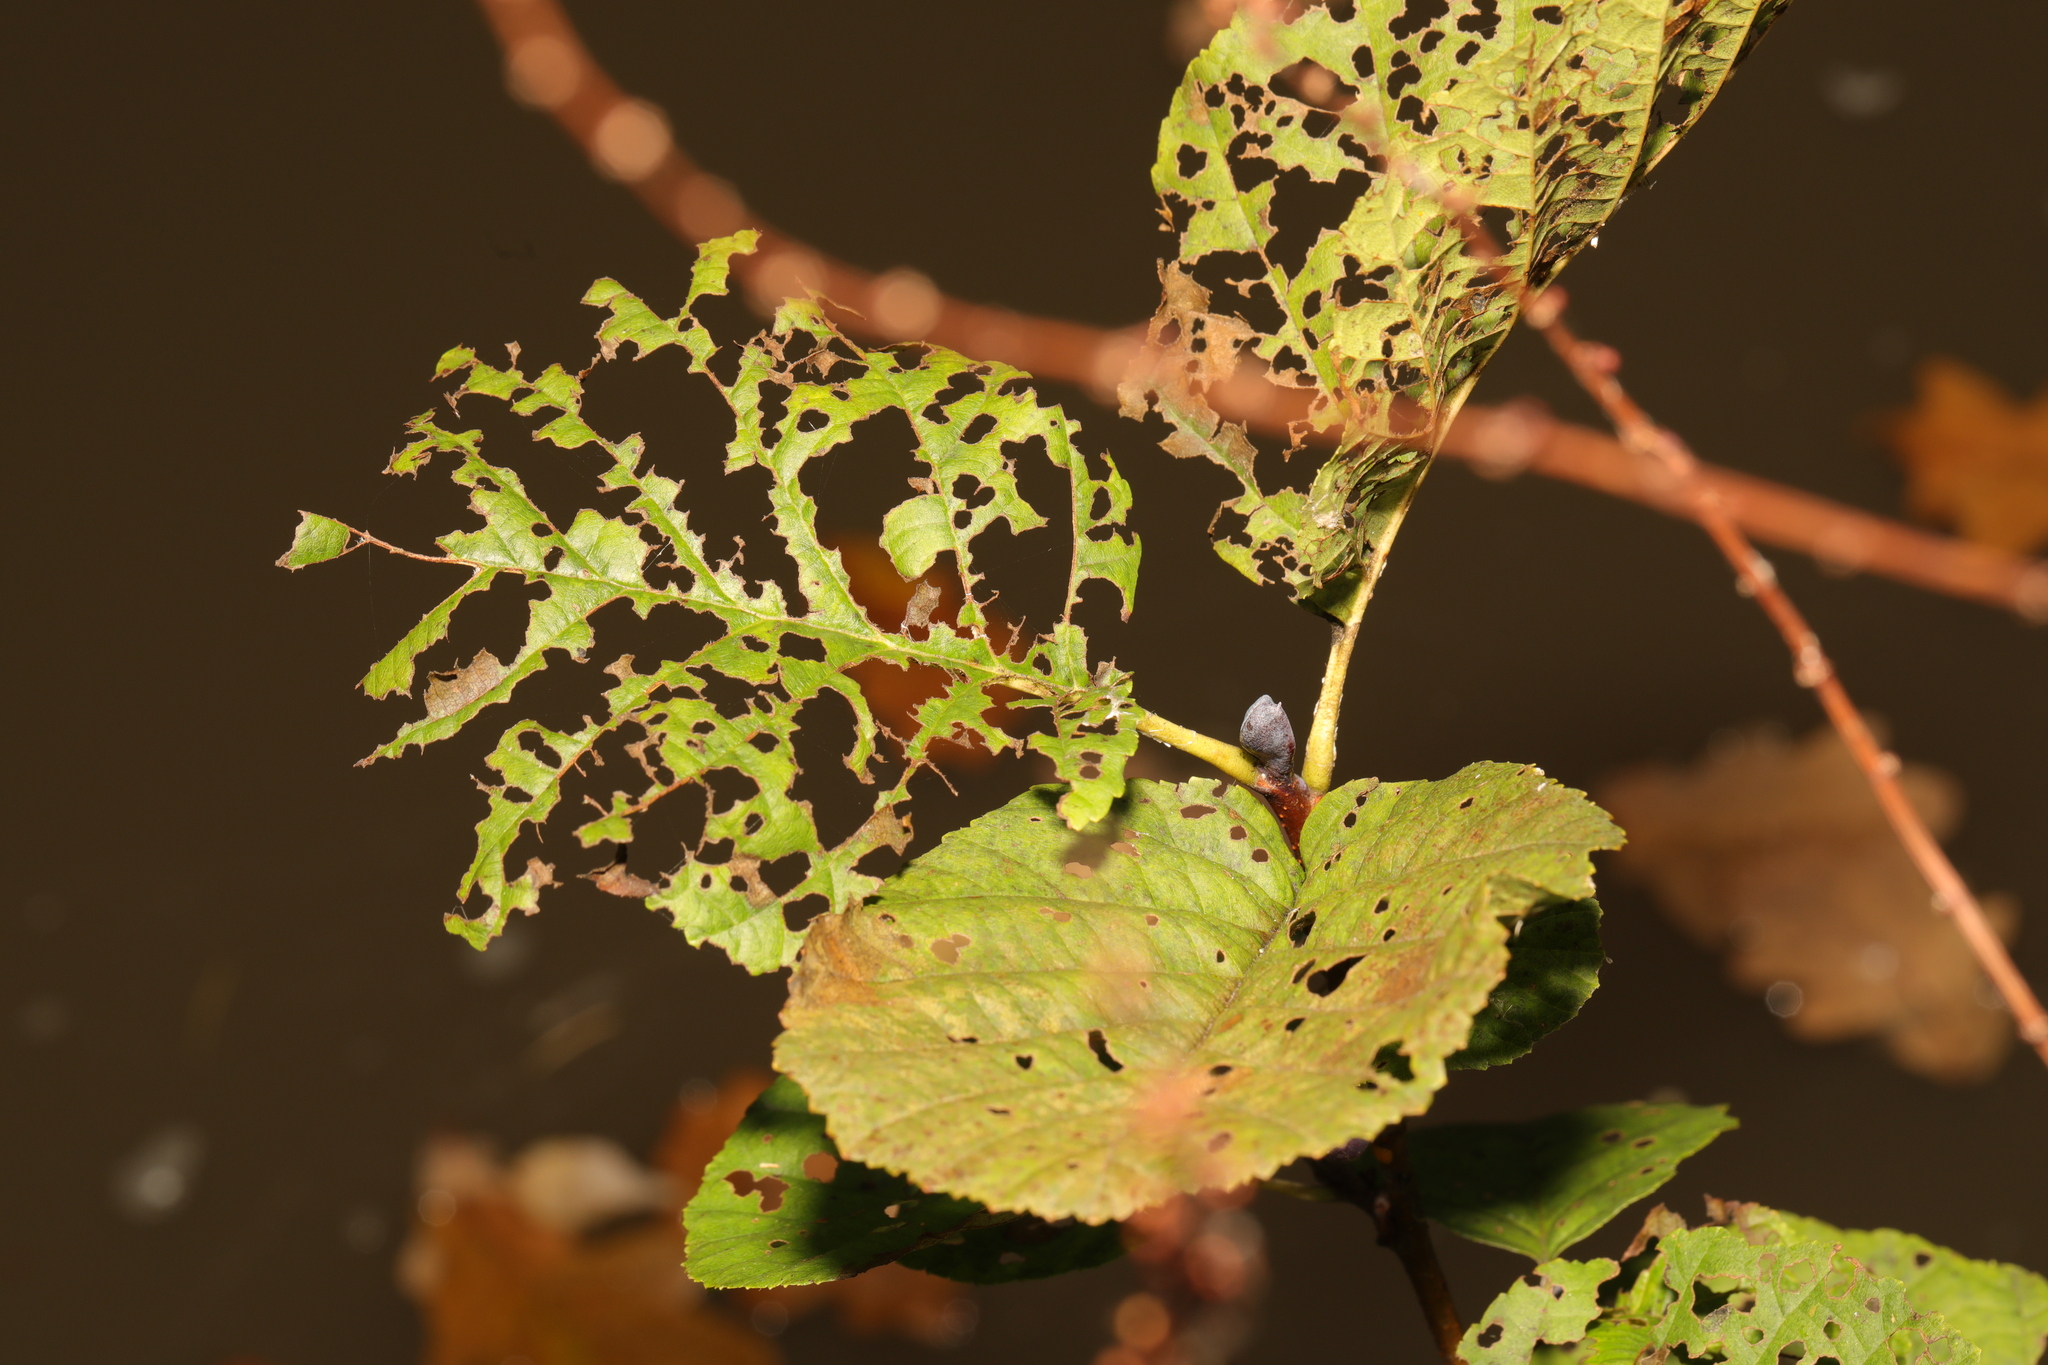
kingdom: Animalia
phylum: Arthropoda
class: Insecta
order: Coleoptera
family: Chrysomelidae
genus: Agelastica
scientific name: Agelastica alni
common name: Alder leaf beetle
